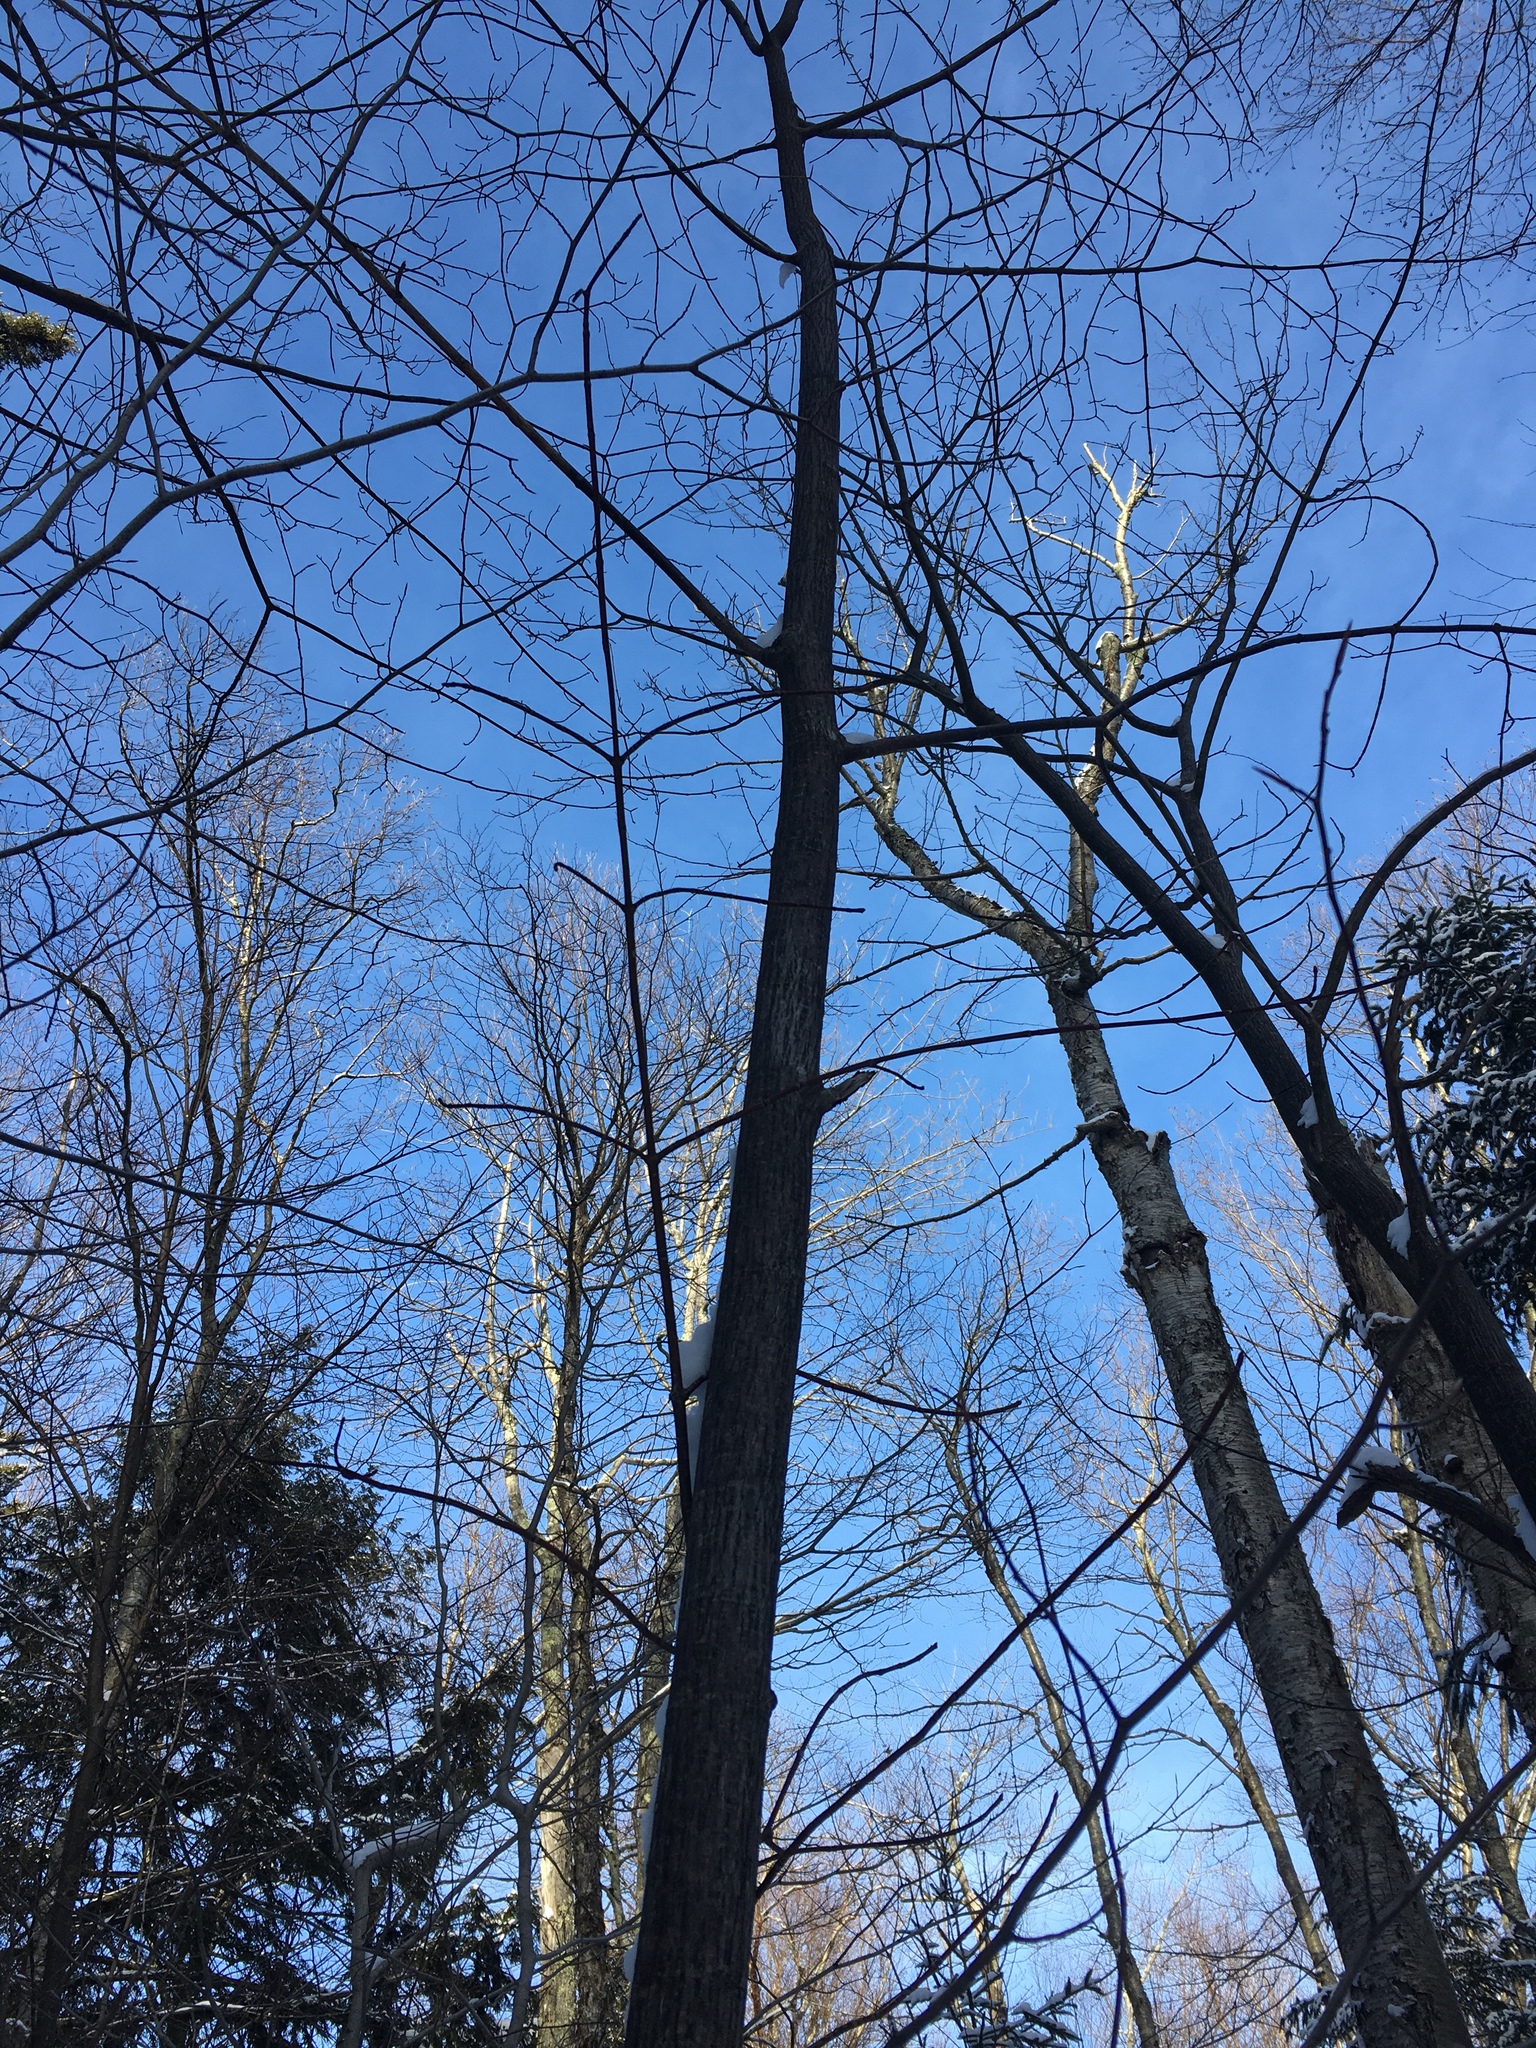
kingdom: Plantae
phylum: Tracheophyta
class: Magnoliopsida
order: Sapindales
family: Sapindaceae
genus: Acer
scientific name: Acer pensylvanicum
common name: Moosewood
